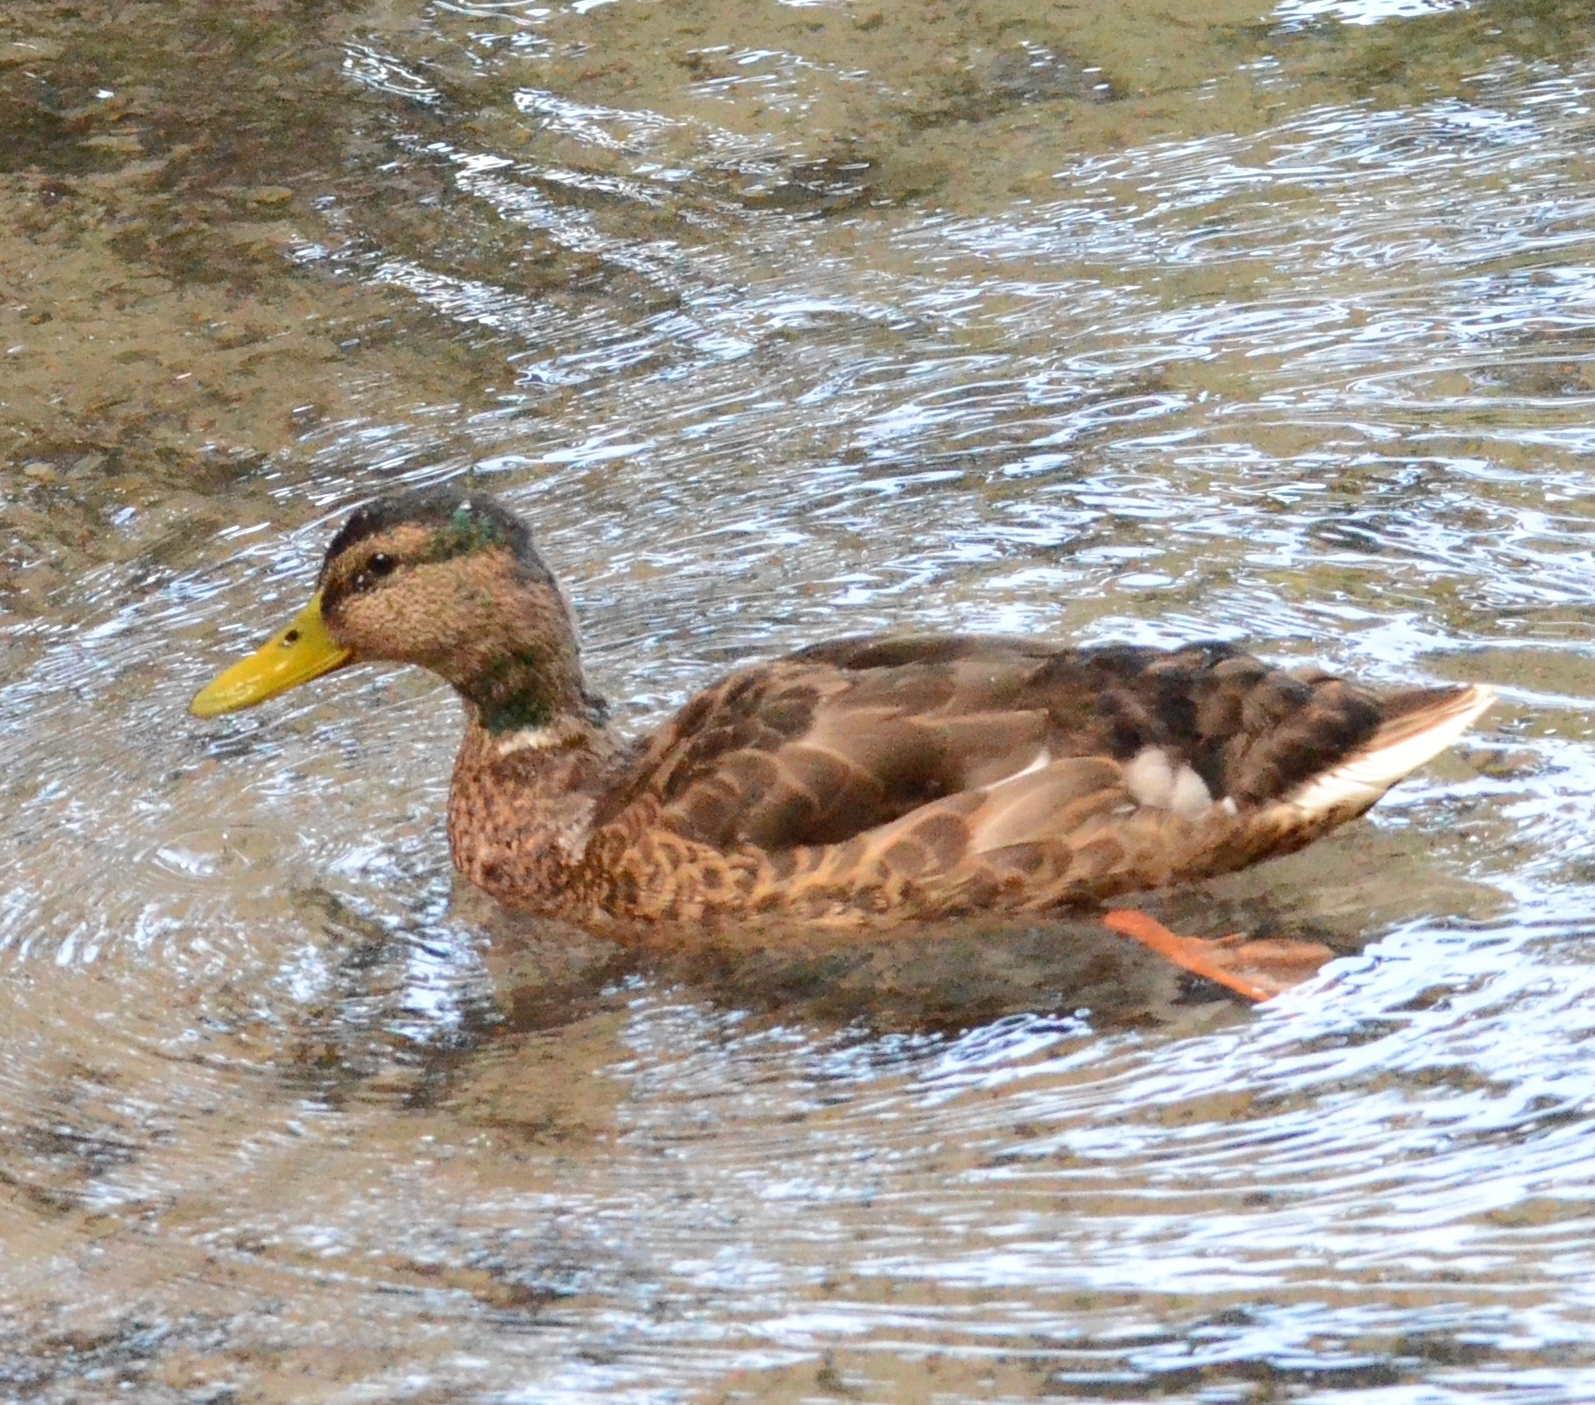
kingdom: Animalia
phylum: Chordata
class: Aves
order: Anseriformes
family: Anatidae
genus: Anas
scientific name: Anas platyrhynchos
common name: Mallard
